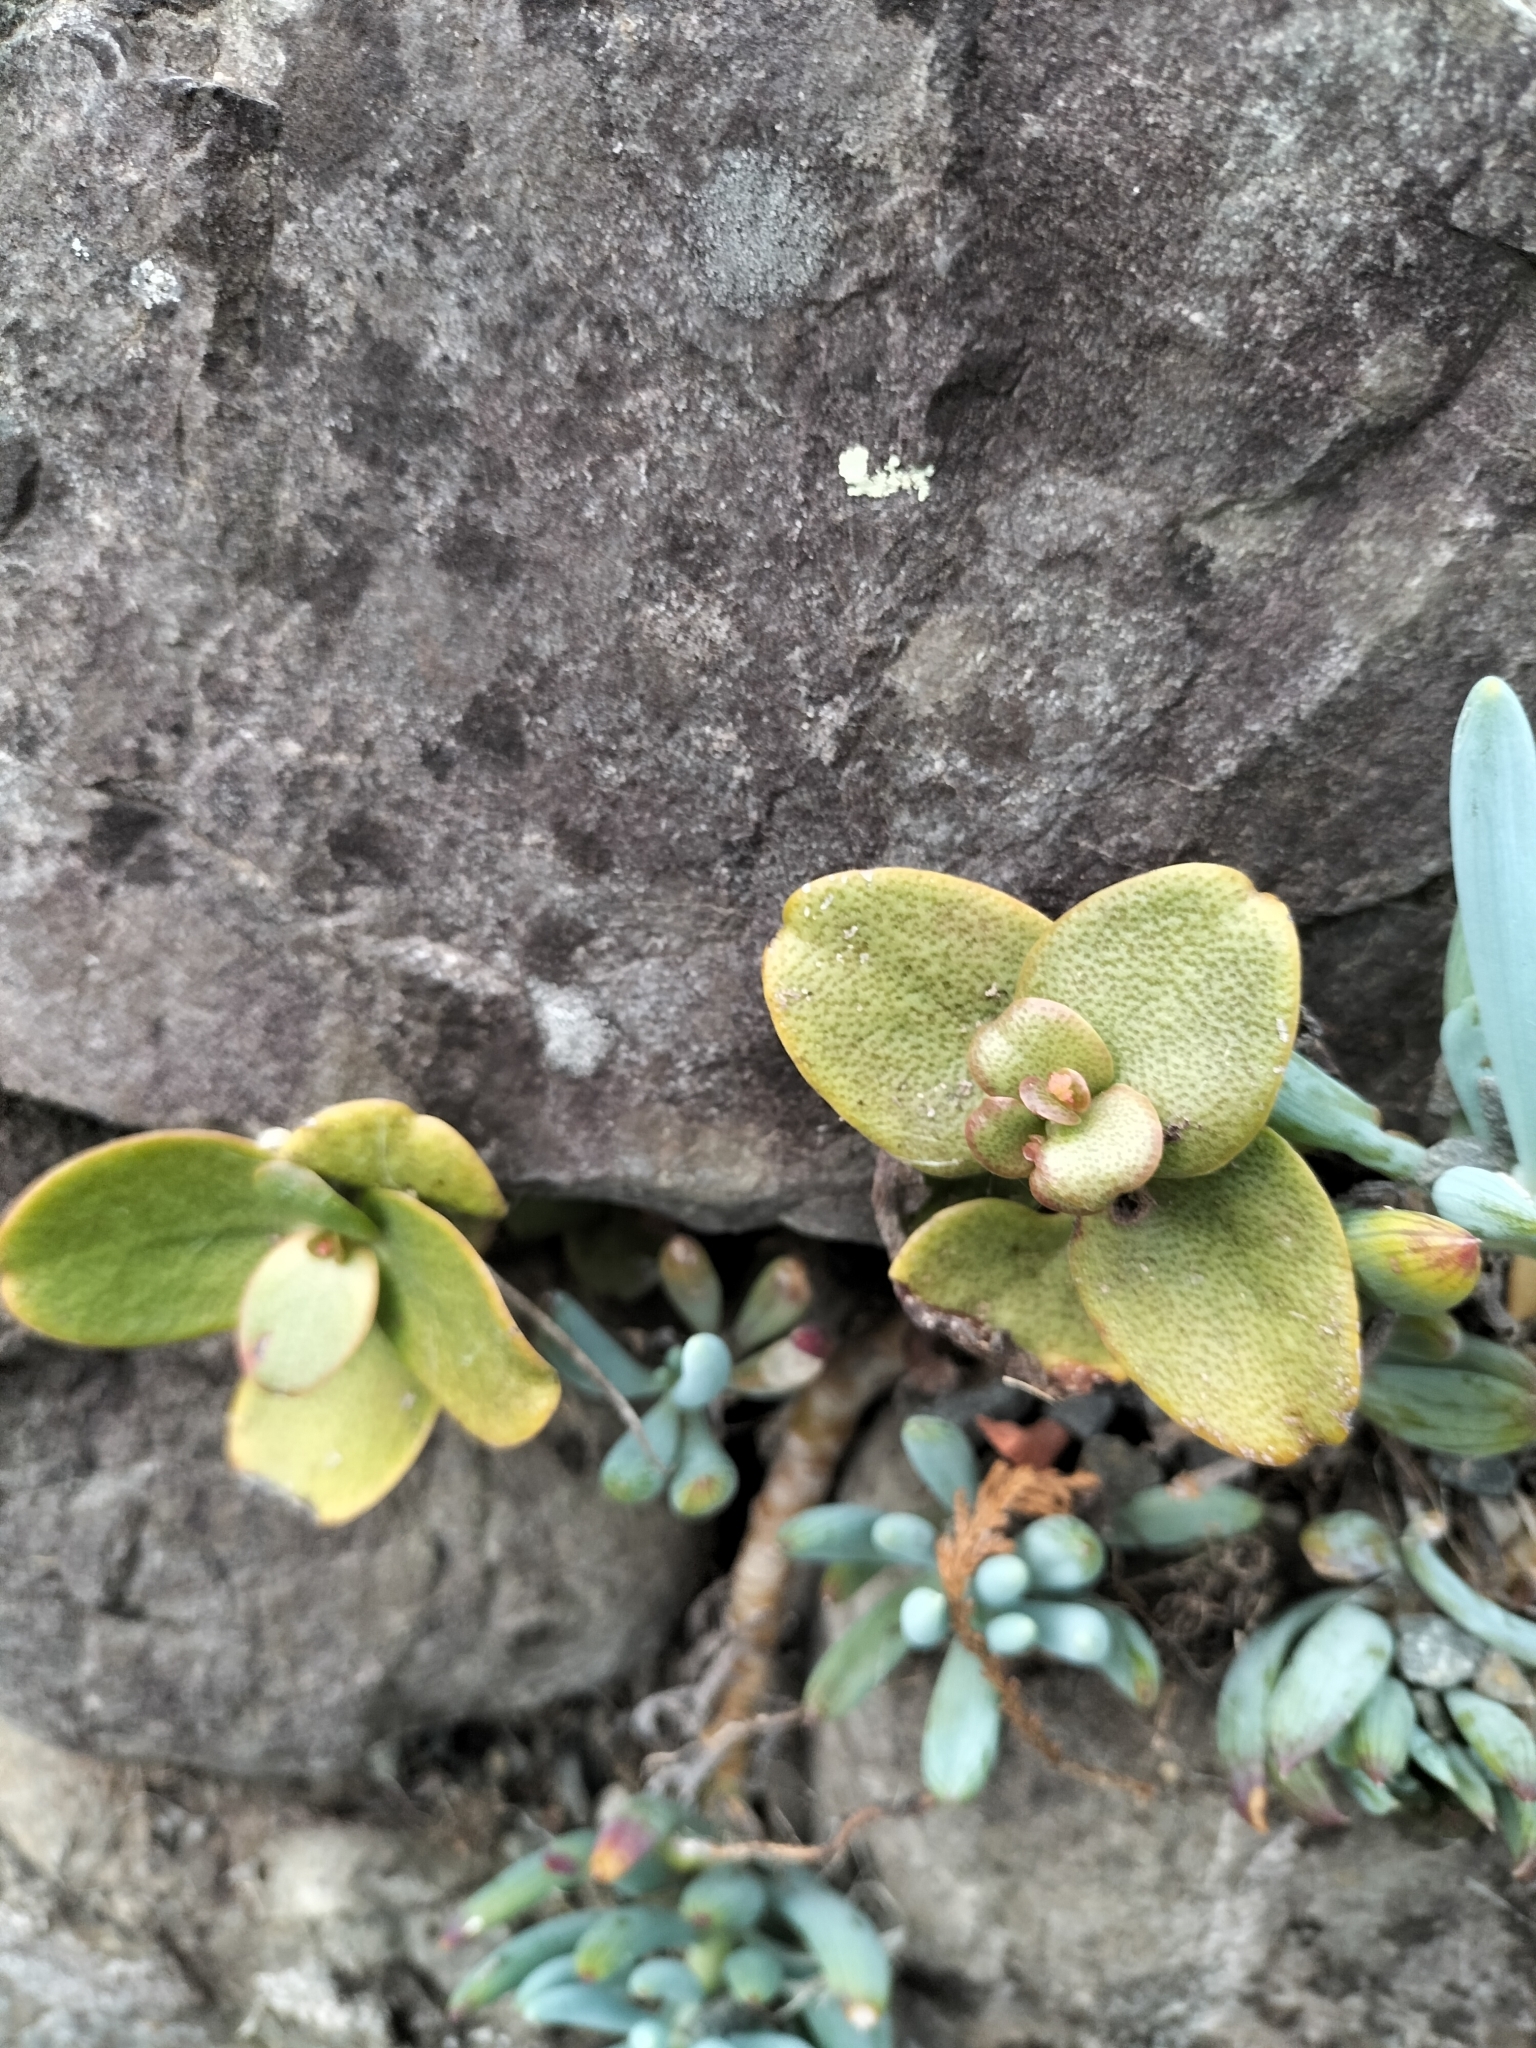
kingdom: Plantae
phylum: Tracheophyta
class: Magnoliopsida
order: Saxifragales
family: Crassulaceae
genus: Crassula
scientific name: Crassula multicava
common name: Cape province pygmyweed
